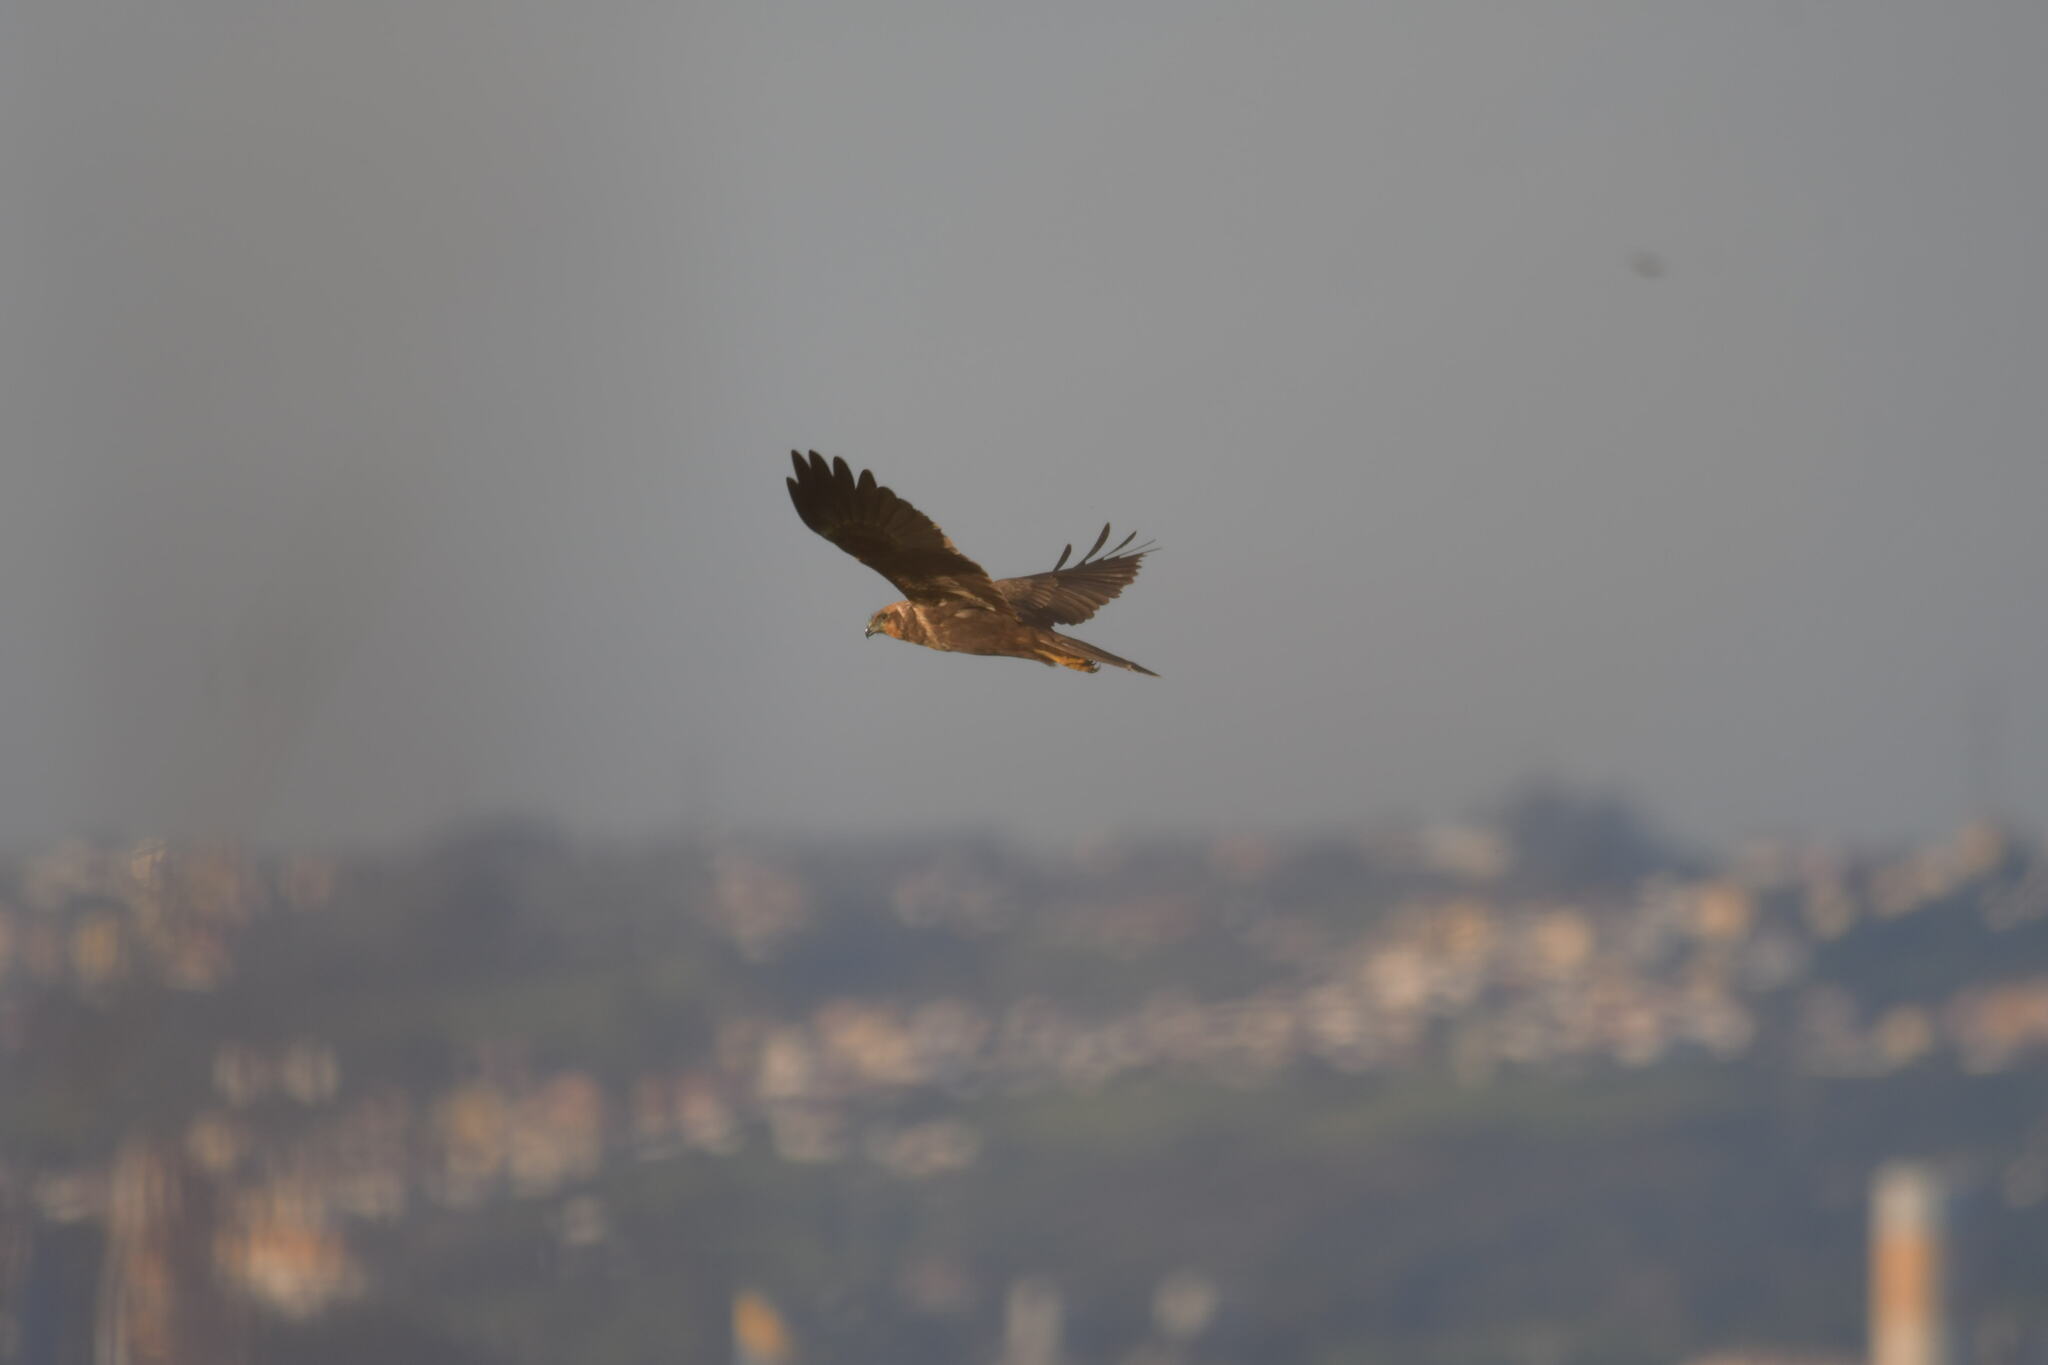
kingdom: Animalia
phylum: Chordata
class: Aves
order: Accipitriformes
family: Accipitridae
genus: Circus
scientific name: Circus aeruginosus
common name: Western marsh harrier
